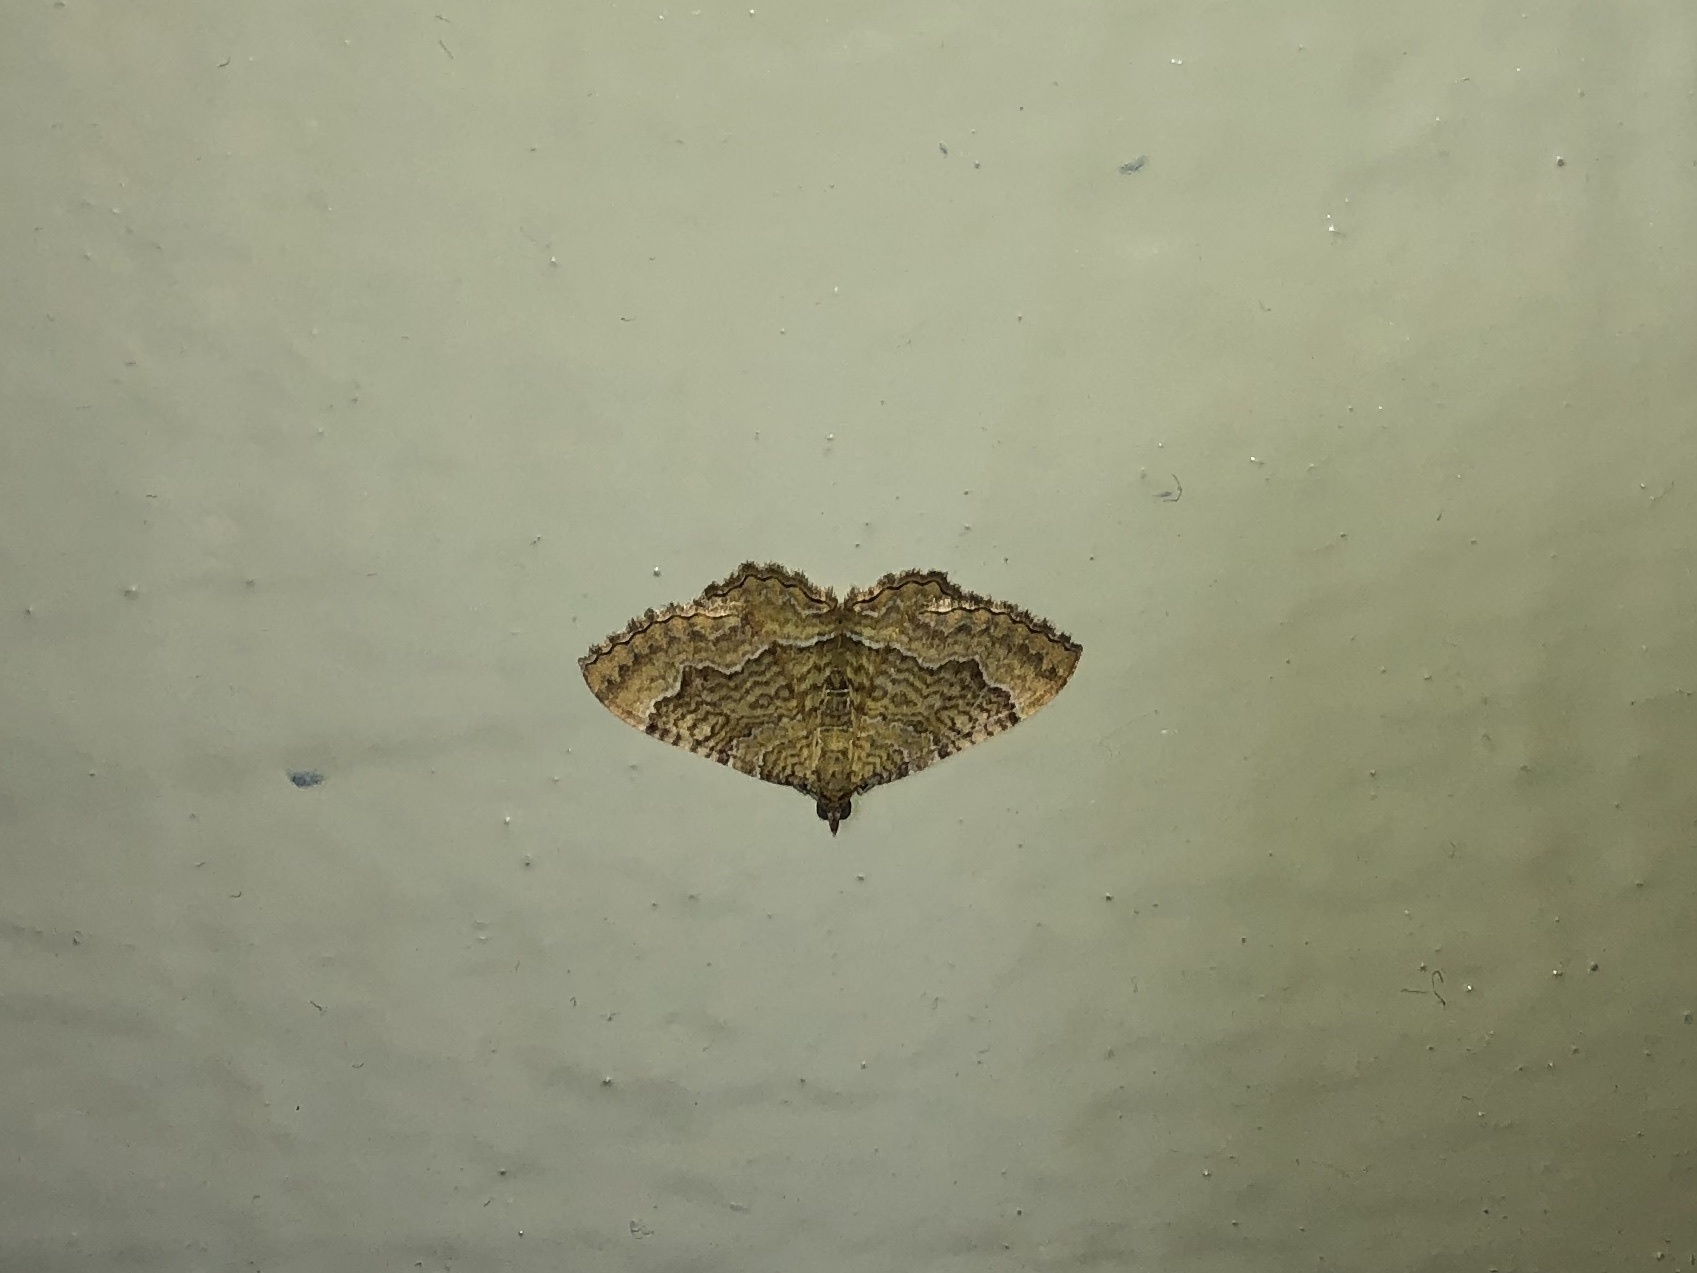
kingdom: Animalia
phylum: Arthropoda
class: Insecta
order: Lepidoptera
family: Geometridae
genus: Camptogramma
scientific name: Camptogramma bilineata
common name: Yellow shell
